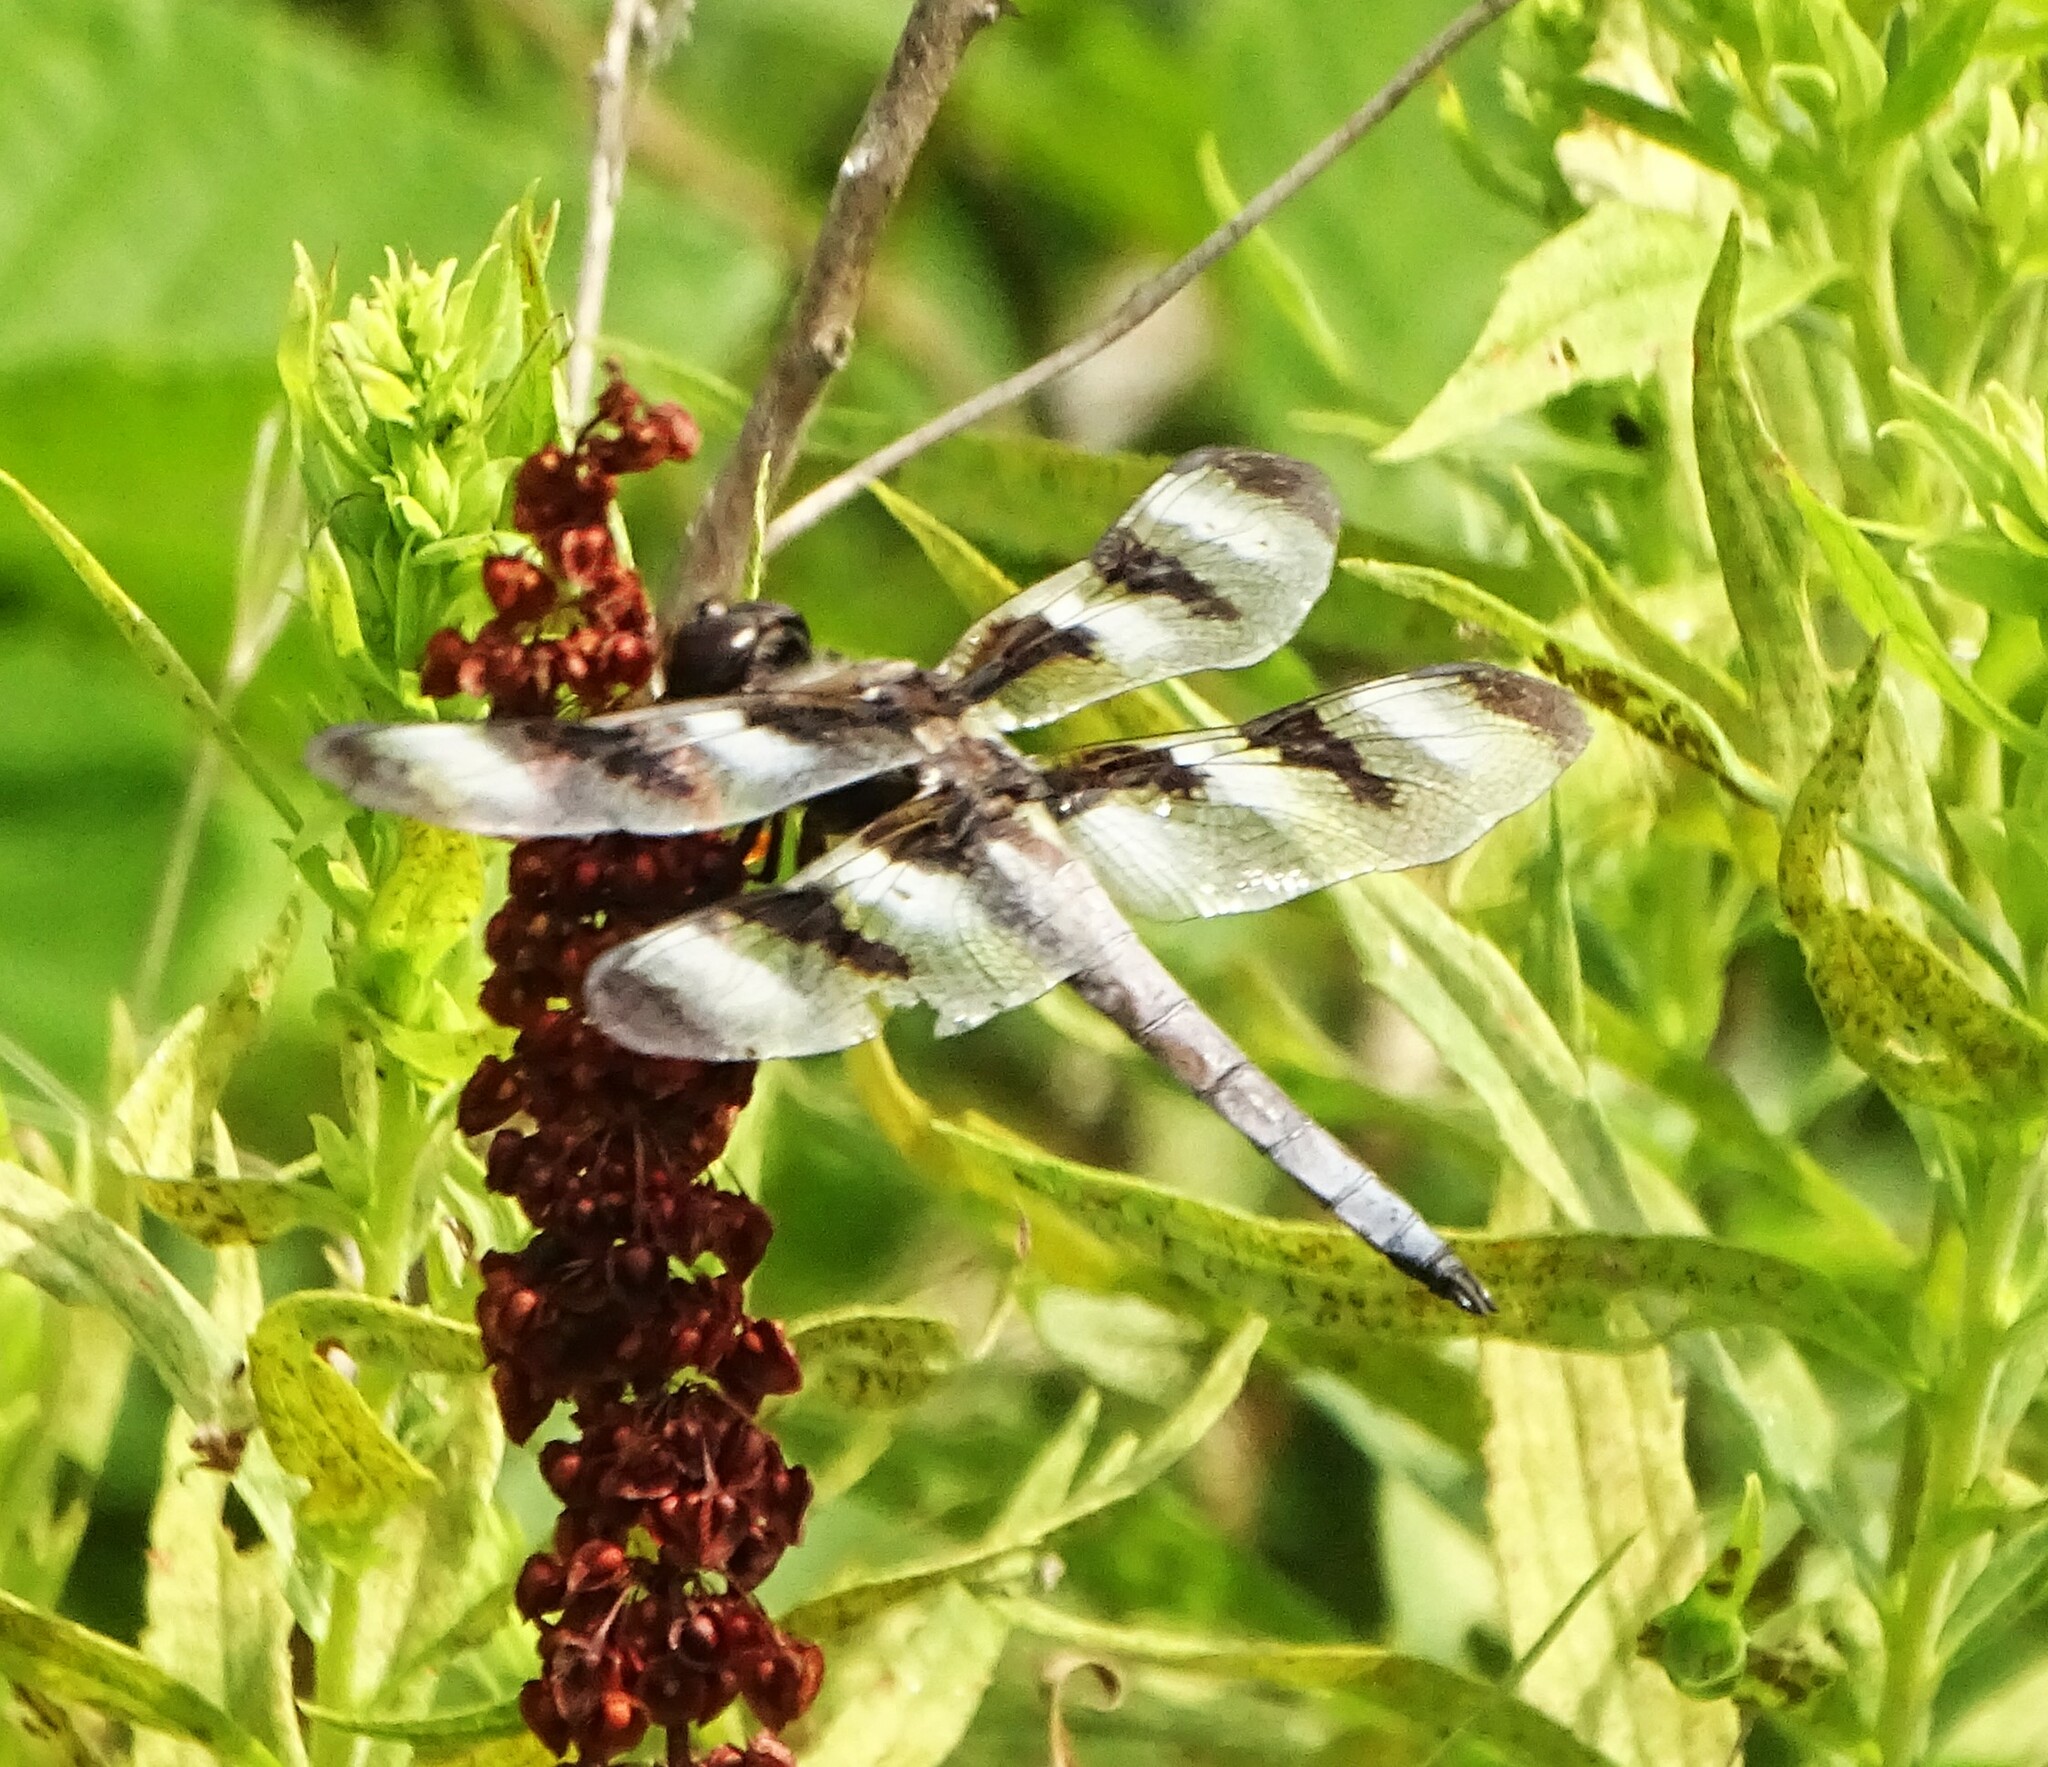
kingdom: Animalia
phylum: Arthropoda
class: Insecta
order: Odonata
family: Libellulidae
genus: Libellula
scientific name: Libellula pulchella
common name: Twelve-spotted skimmer
